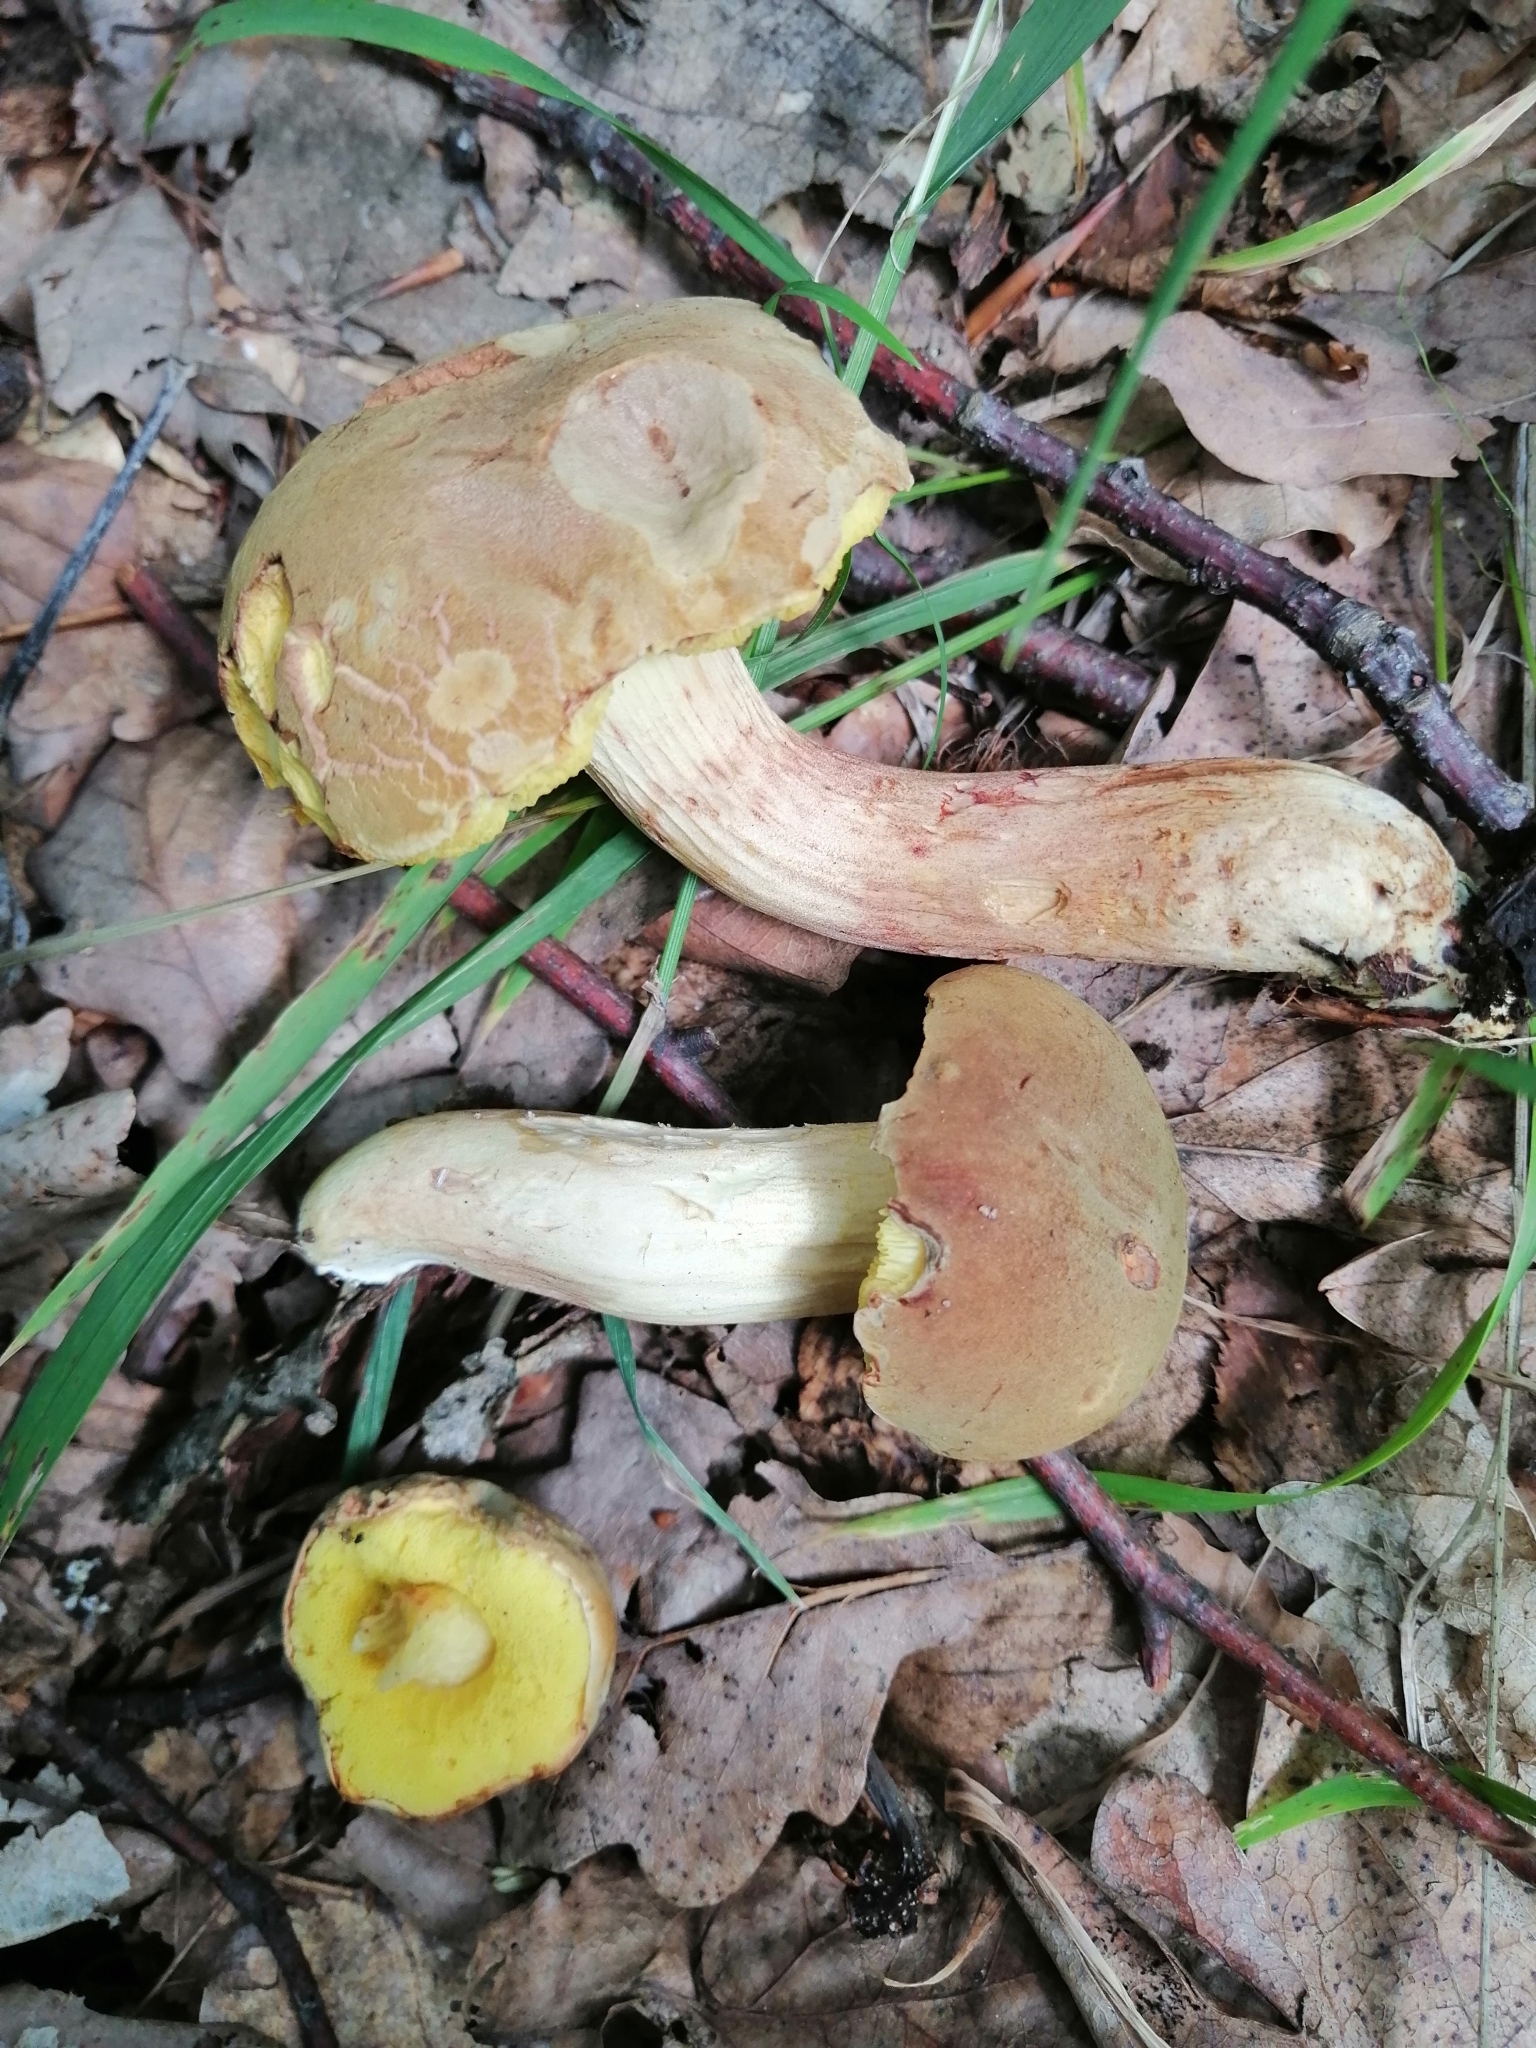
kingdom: Fungi
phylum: Basidiomycota
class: Agaricomycetes
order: Boletales
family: Boletaceae
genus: Xerocomus
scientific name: Xerocomus subtomentosus
